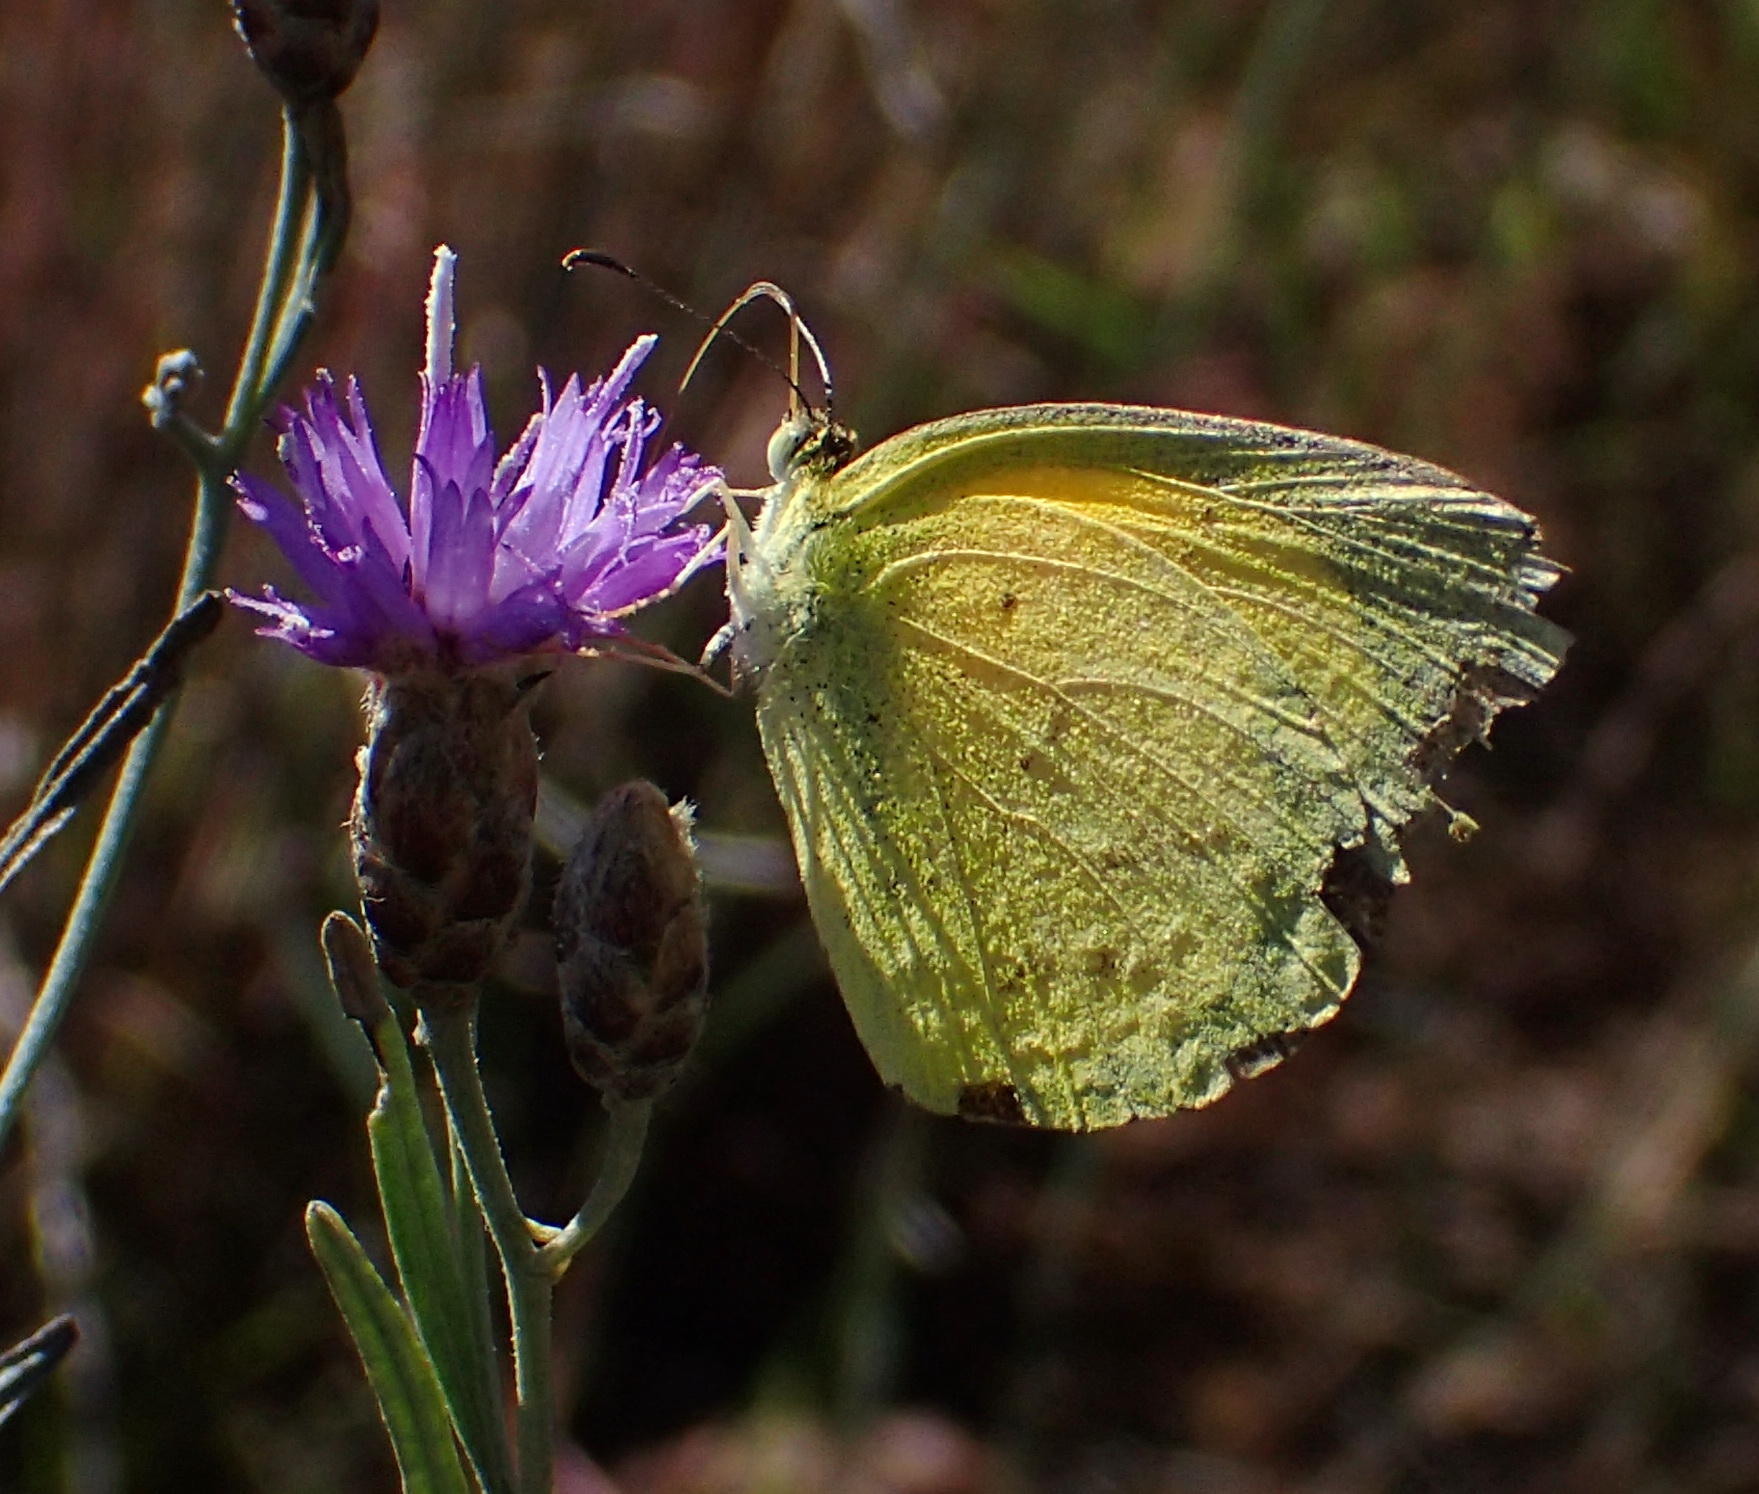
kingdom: Animalia
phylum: Arthropoda
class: Insecta
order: Lepidoptera
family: Pieridae
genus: Eurema
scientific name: Eurema brigitta
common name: Small grass yellow
